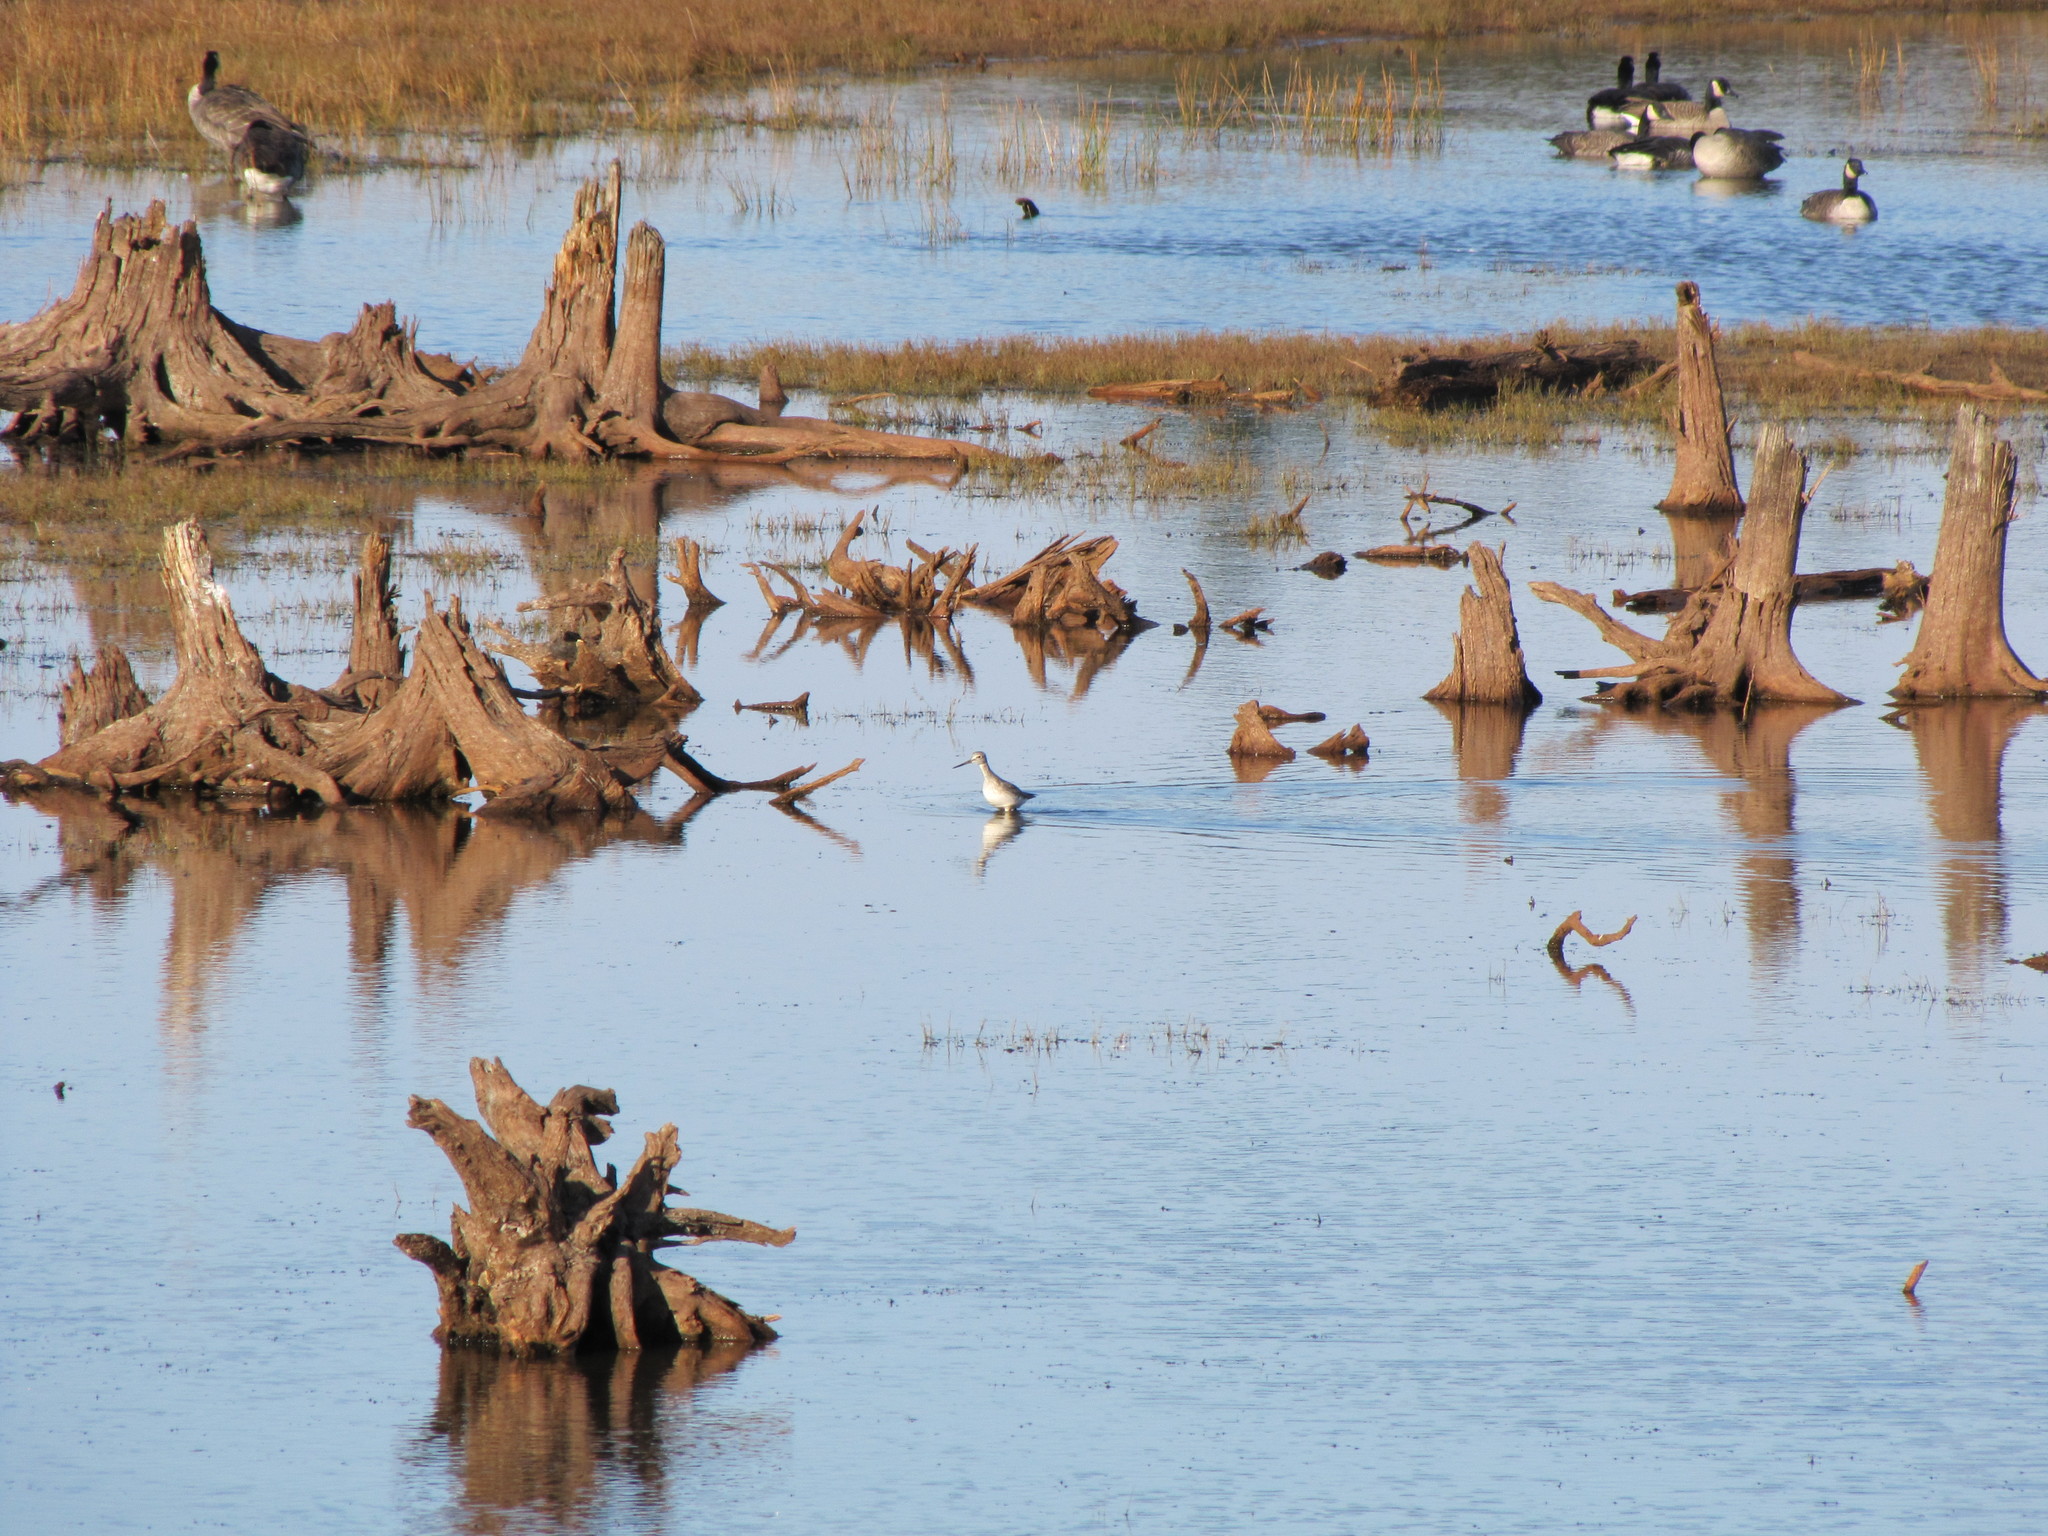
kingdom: Animalia
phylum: Chordata
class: Aves
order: Charadriiformes
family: Scolopacidae
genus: Tringa
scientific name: Tringa melanoleuca
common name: Greater yellowlegs
